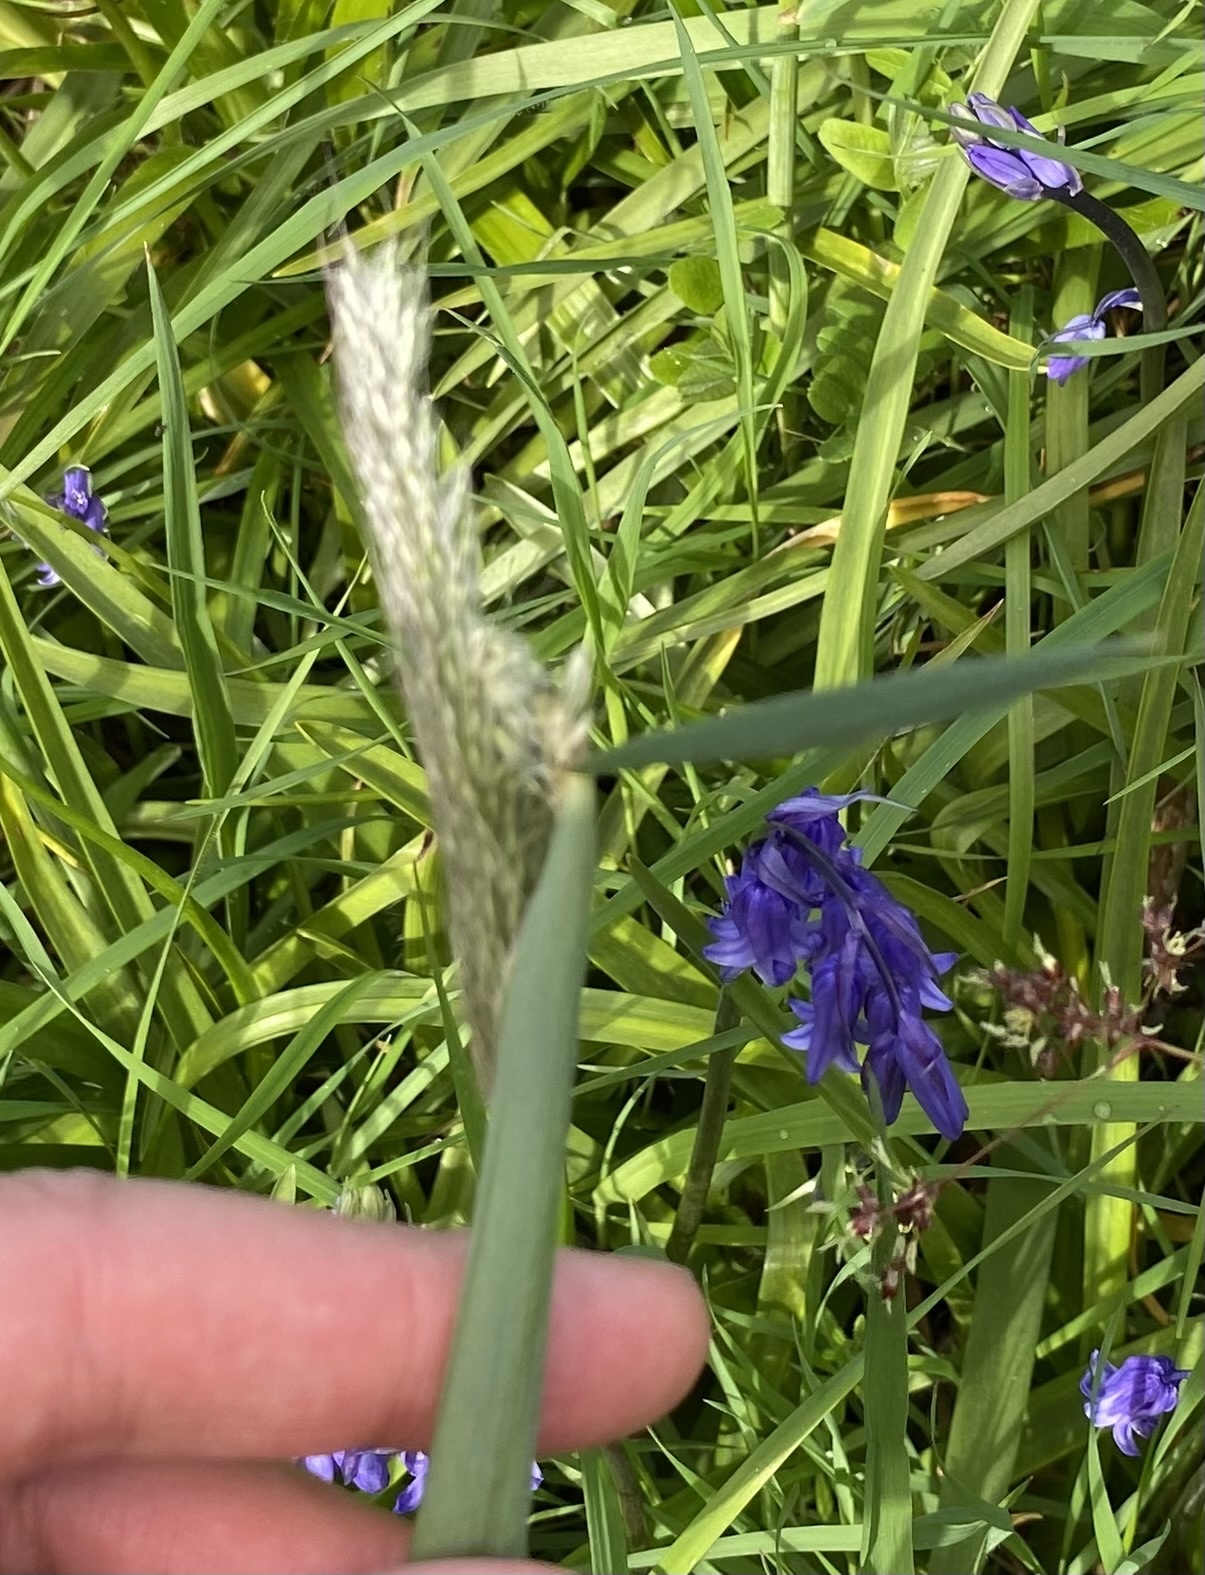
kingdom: Plantae
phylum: Tracheophyta
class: Liliopsida
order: Poales
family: Poaceae
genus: Alopecurus
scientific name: Alopecurus pratensis
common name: Meadow foxtail
